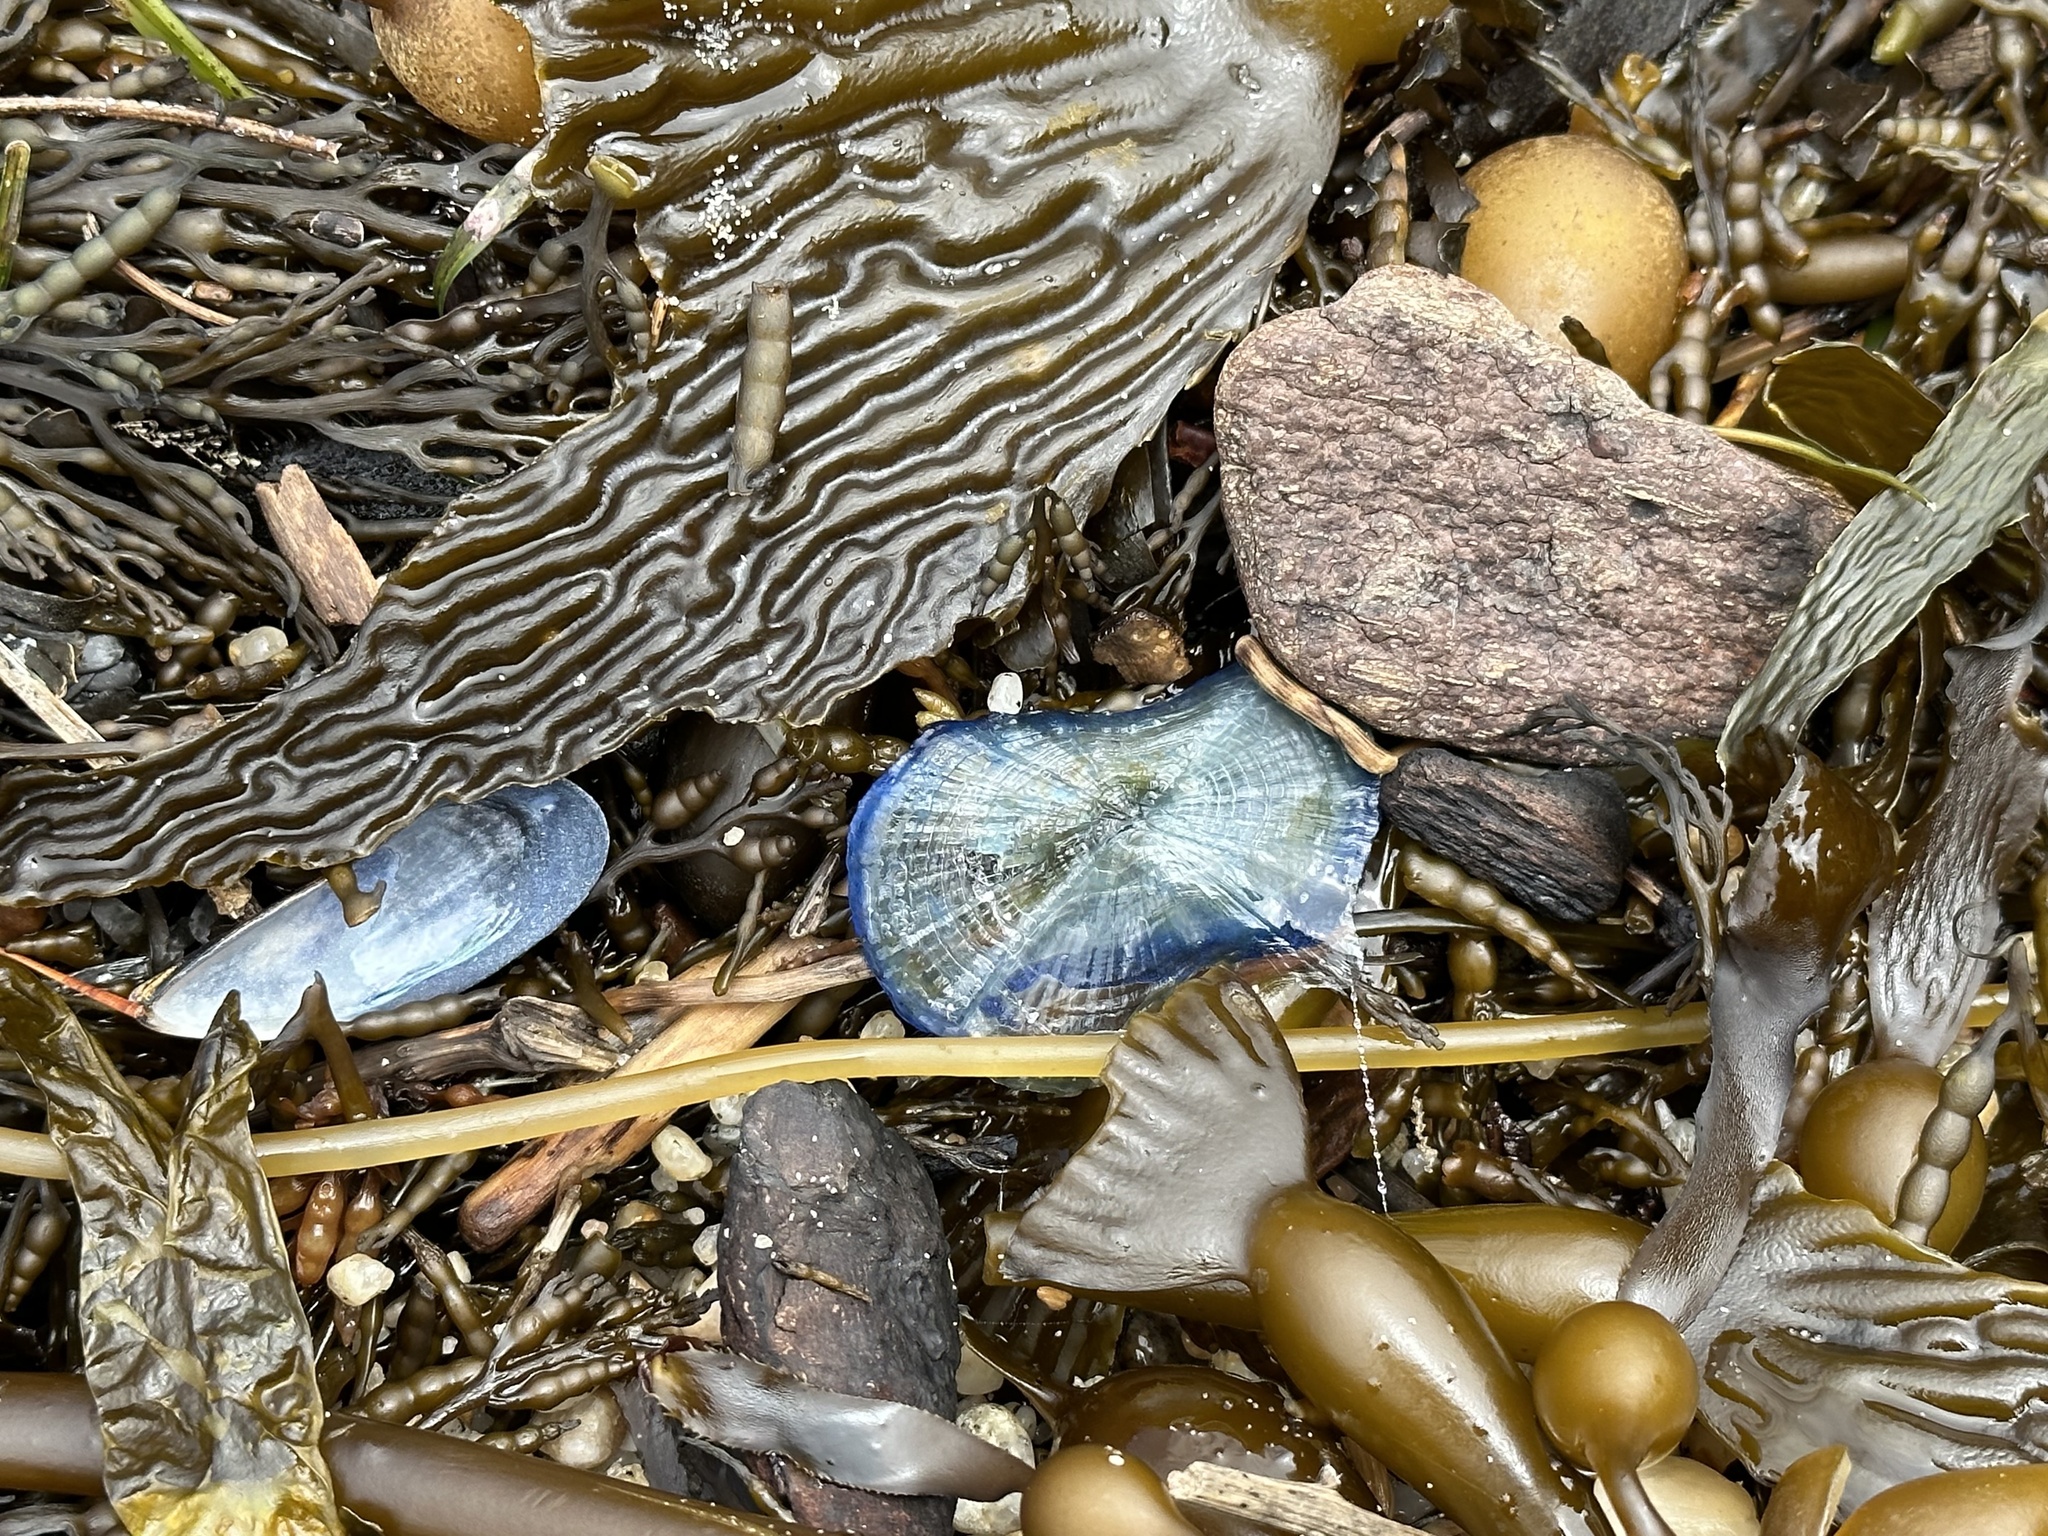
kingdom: Animalia
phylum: Cnidaria
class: Hydrozoa
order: Anthoathecata
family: Porpitidae
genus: Velella
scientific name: Velella velella
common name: By-the-wind-sailor
